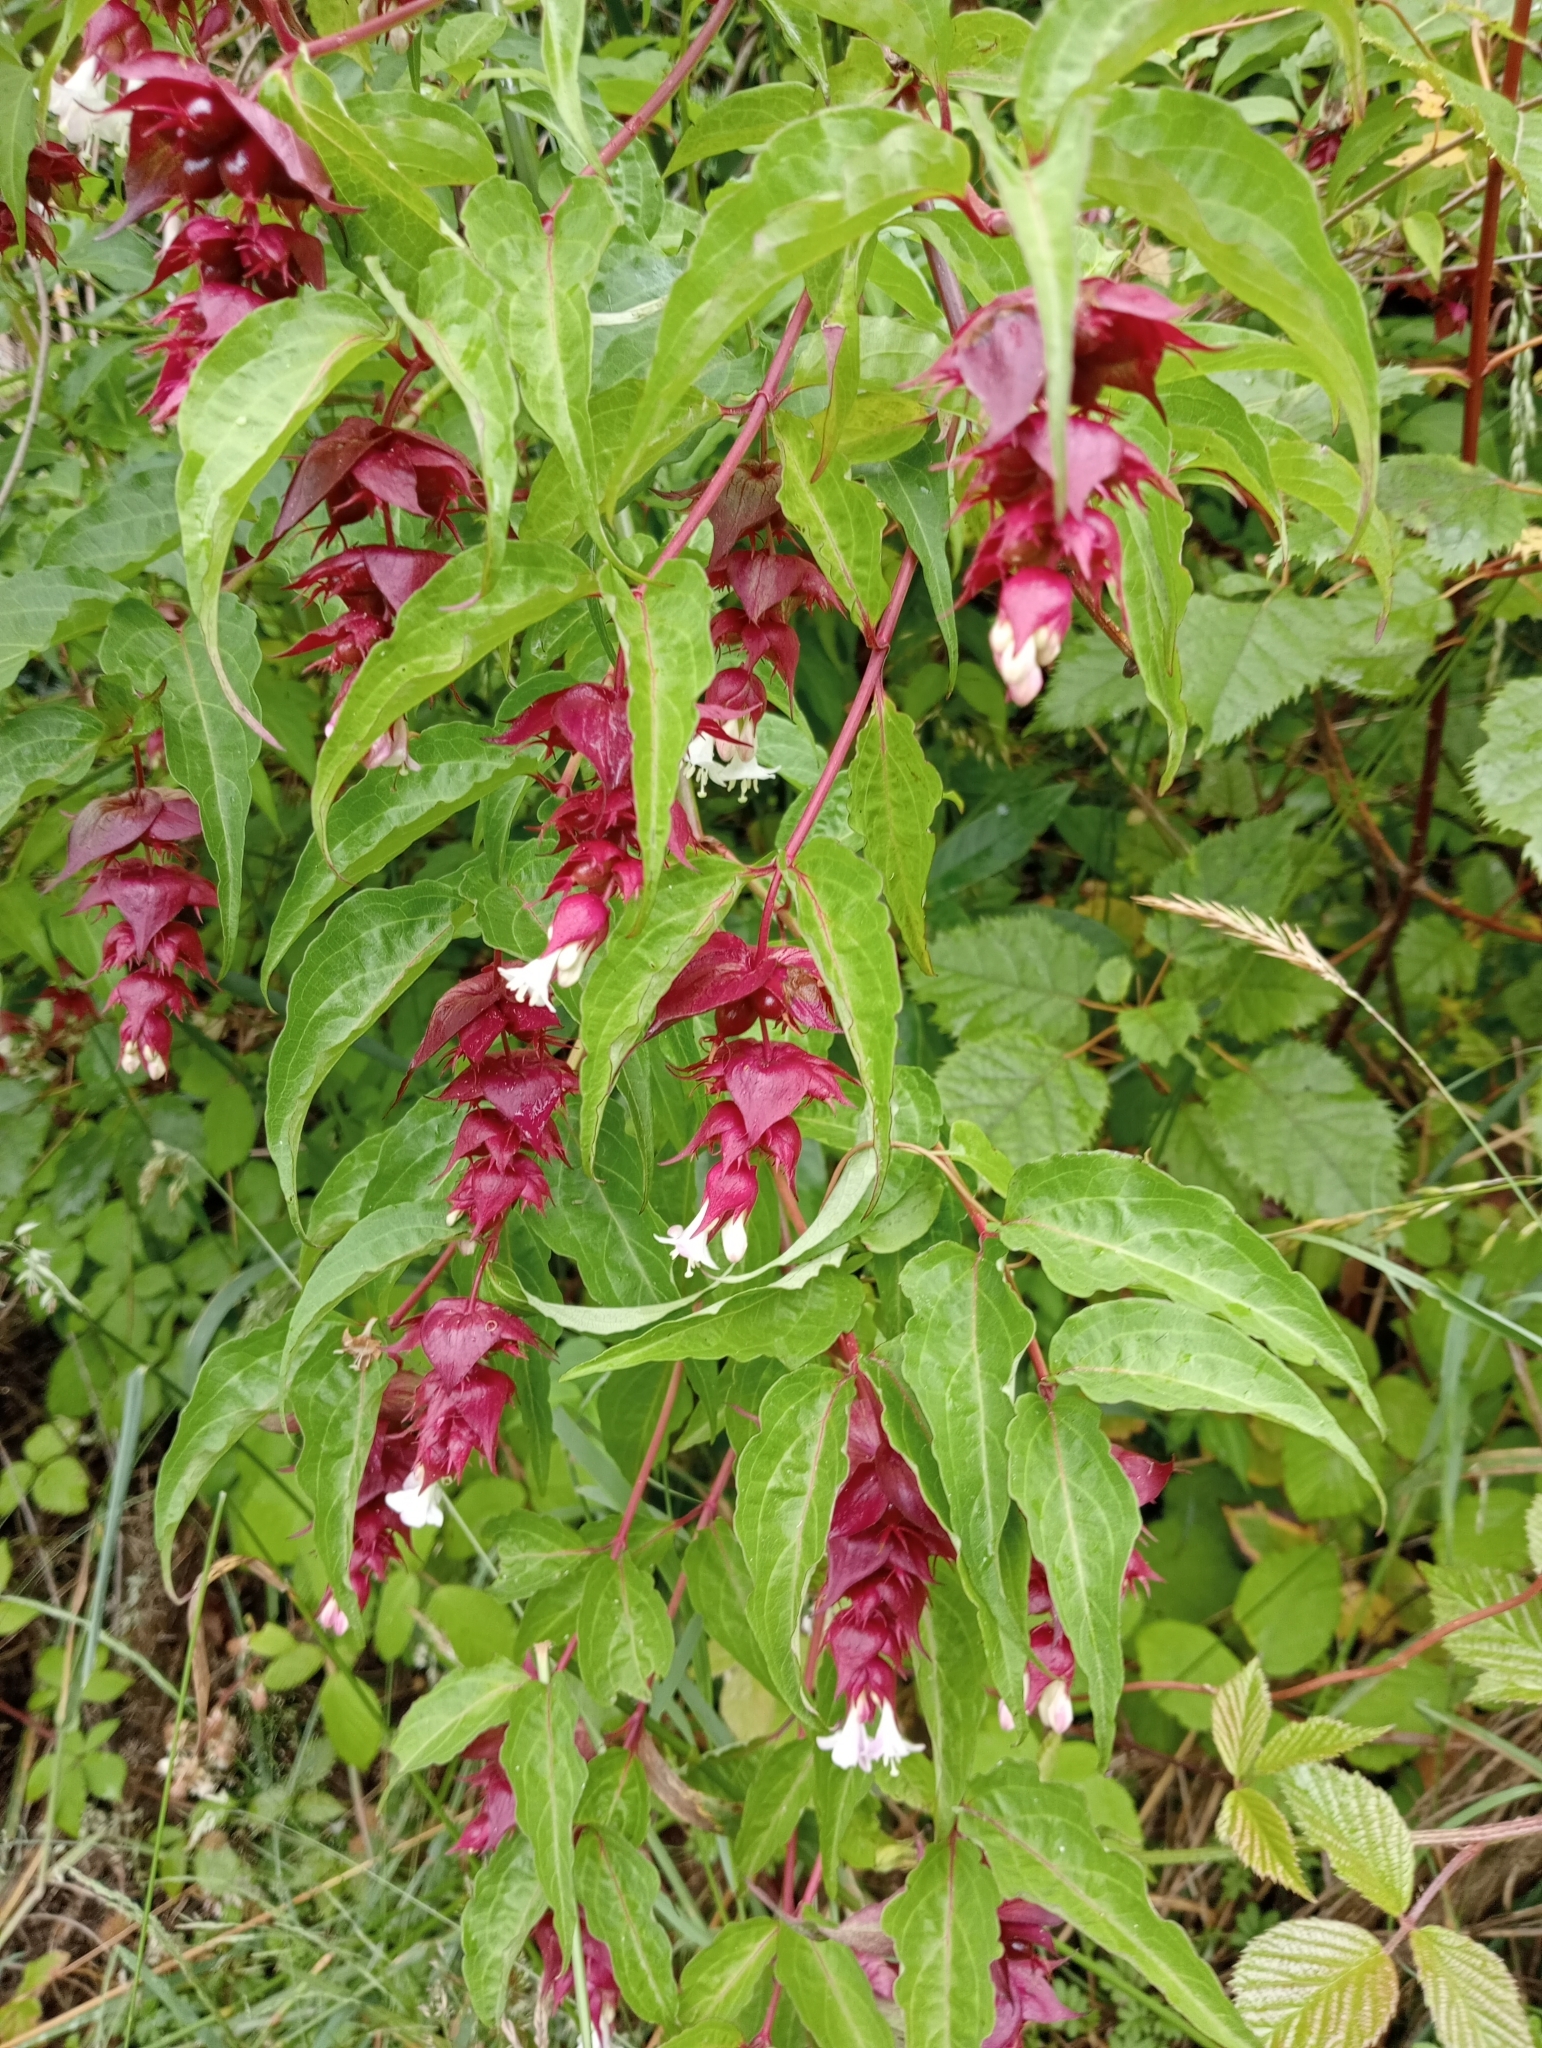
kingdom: Plantae
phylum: Tracheophyta
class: Magnoliopsida
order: Dipsacales
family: Caprifoliaceae
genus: Leycesteria
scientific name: Leycesteria formosa
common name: Himalayan honeysuckle
